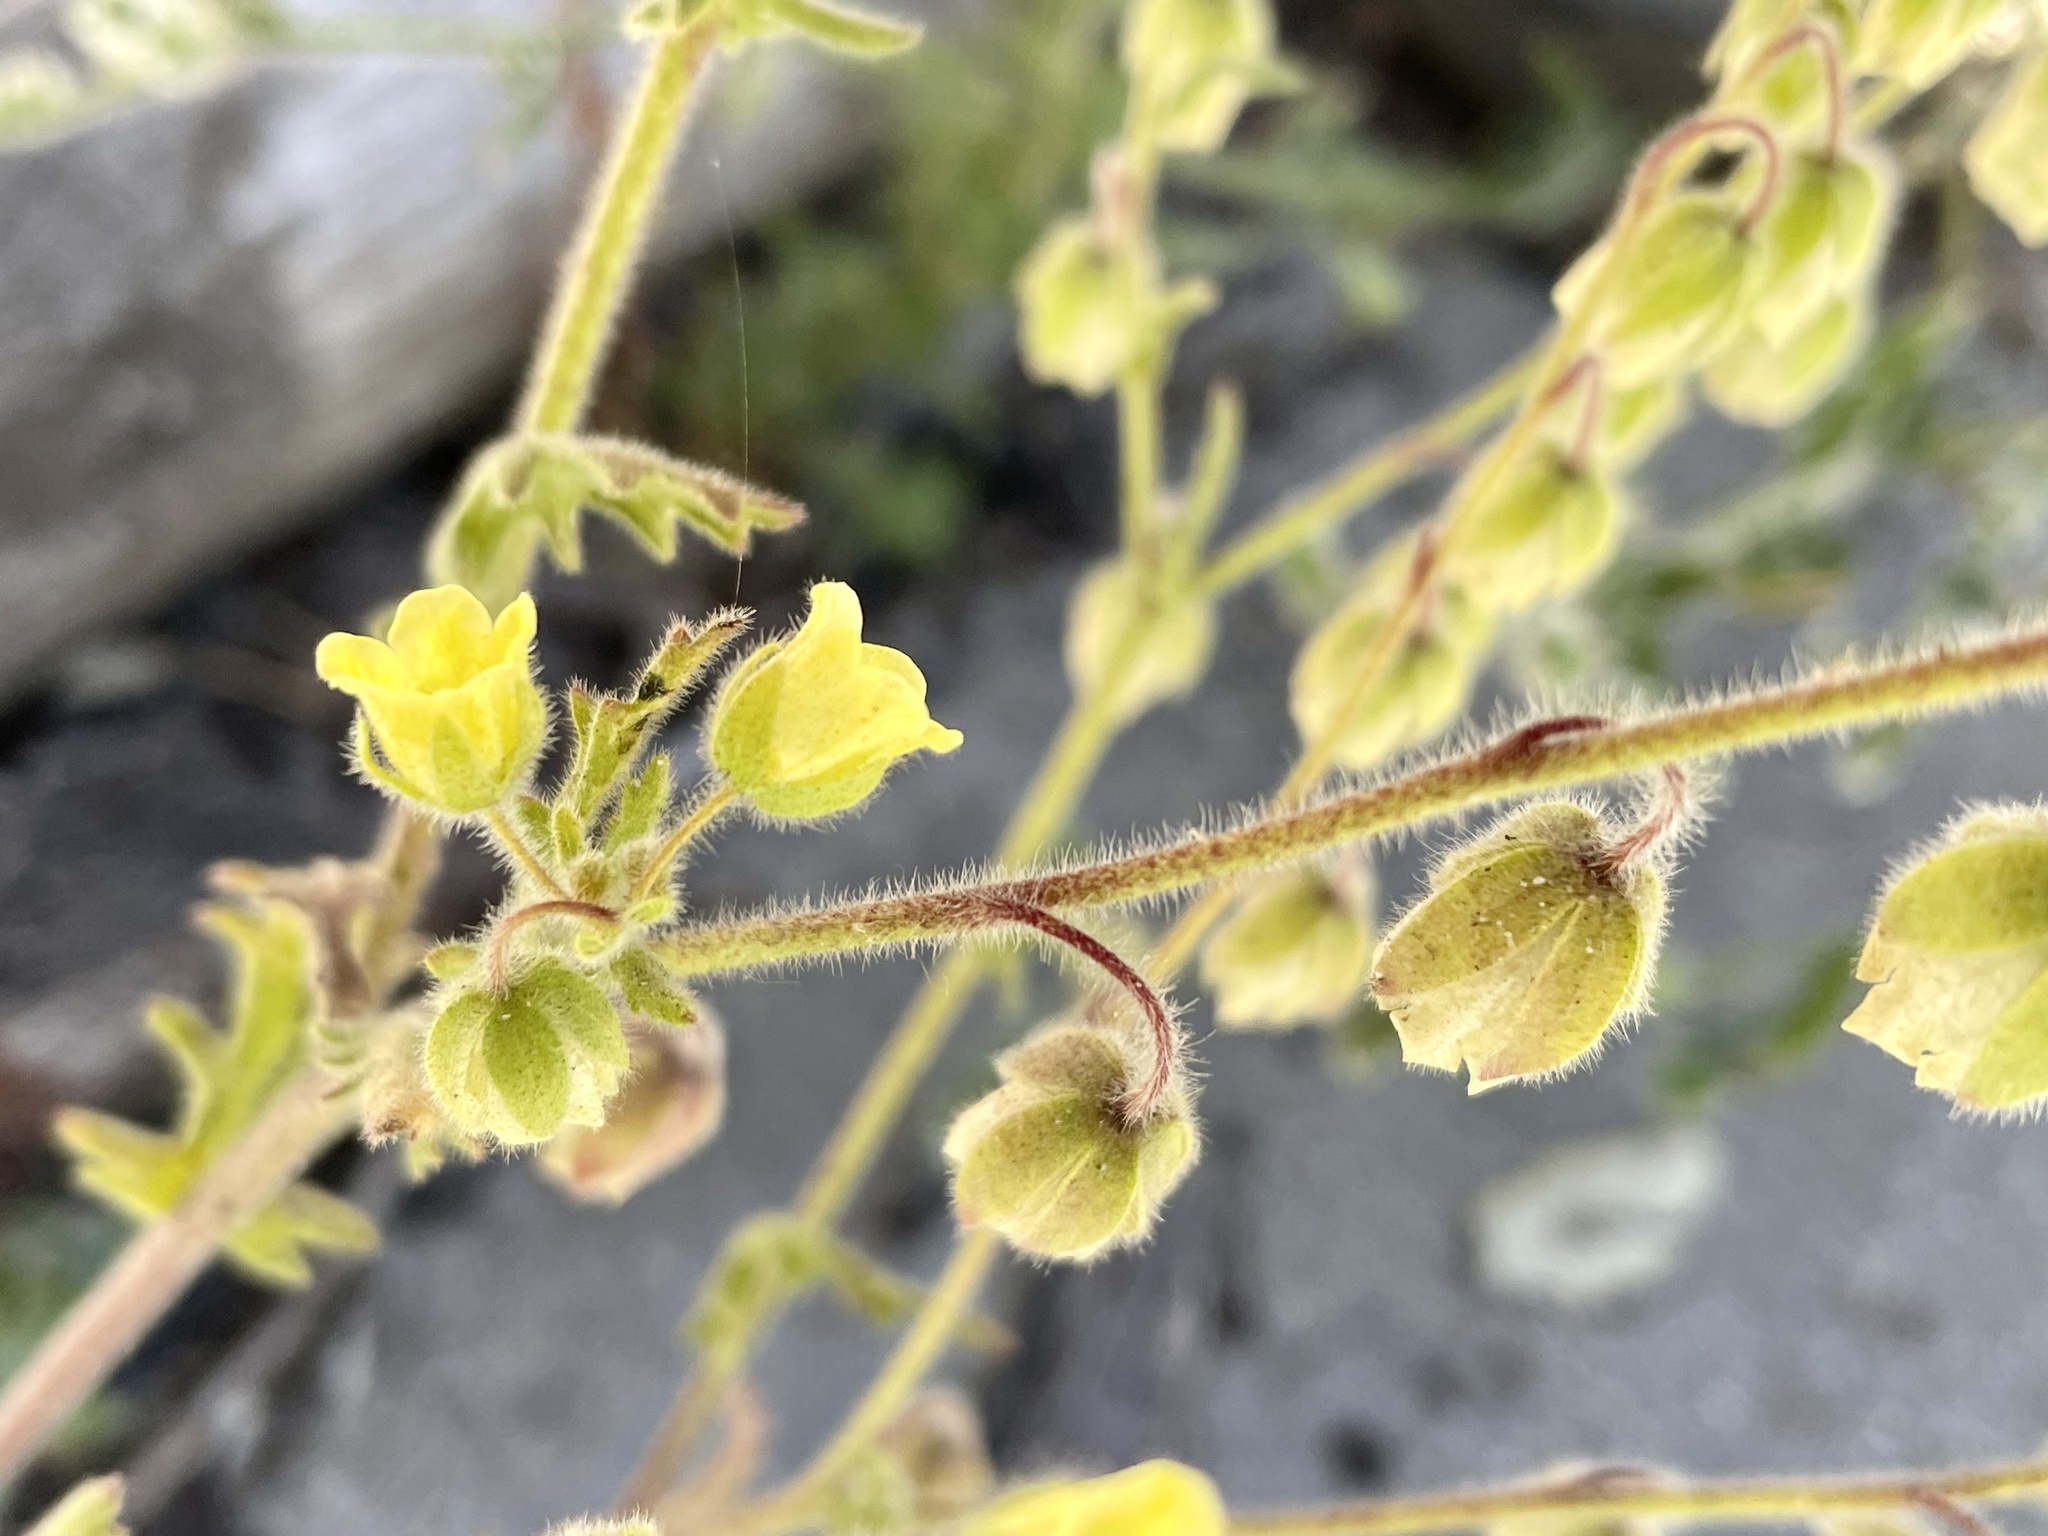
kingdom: Plantae
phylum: Tracheophyta
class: Magnoliopsida
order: Boraginales
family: Hydrophyllaceae
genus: Emmenanthe
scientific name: Emmenanthe penduliflora
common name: Whispering-bells
